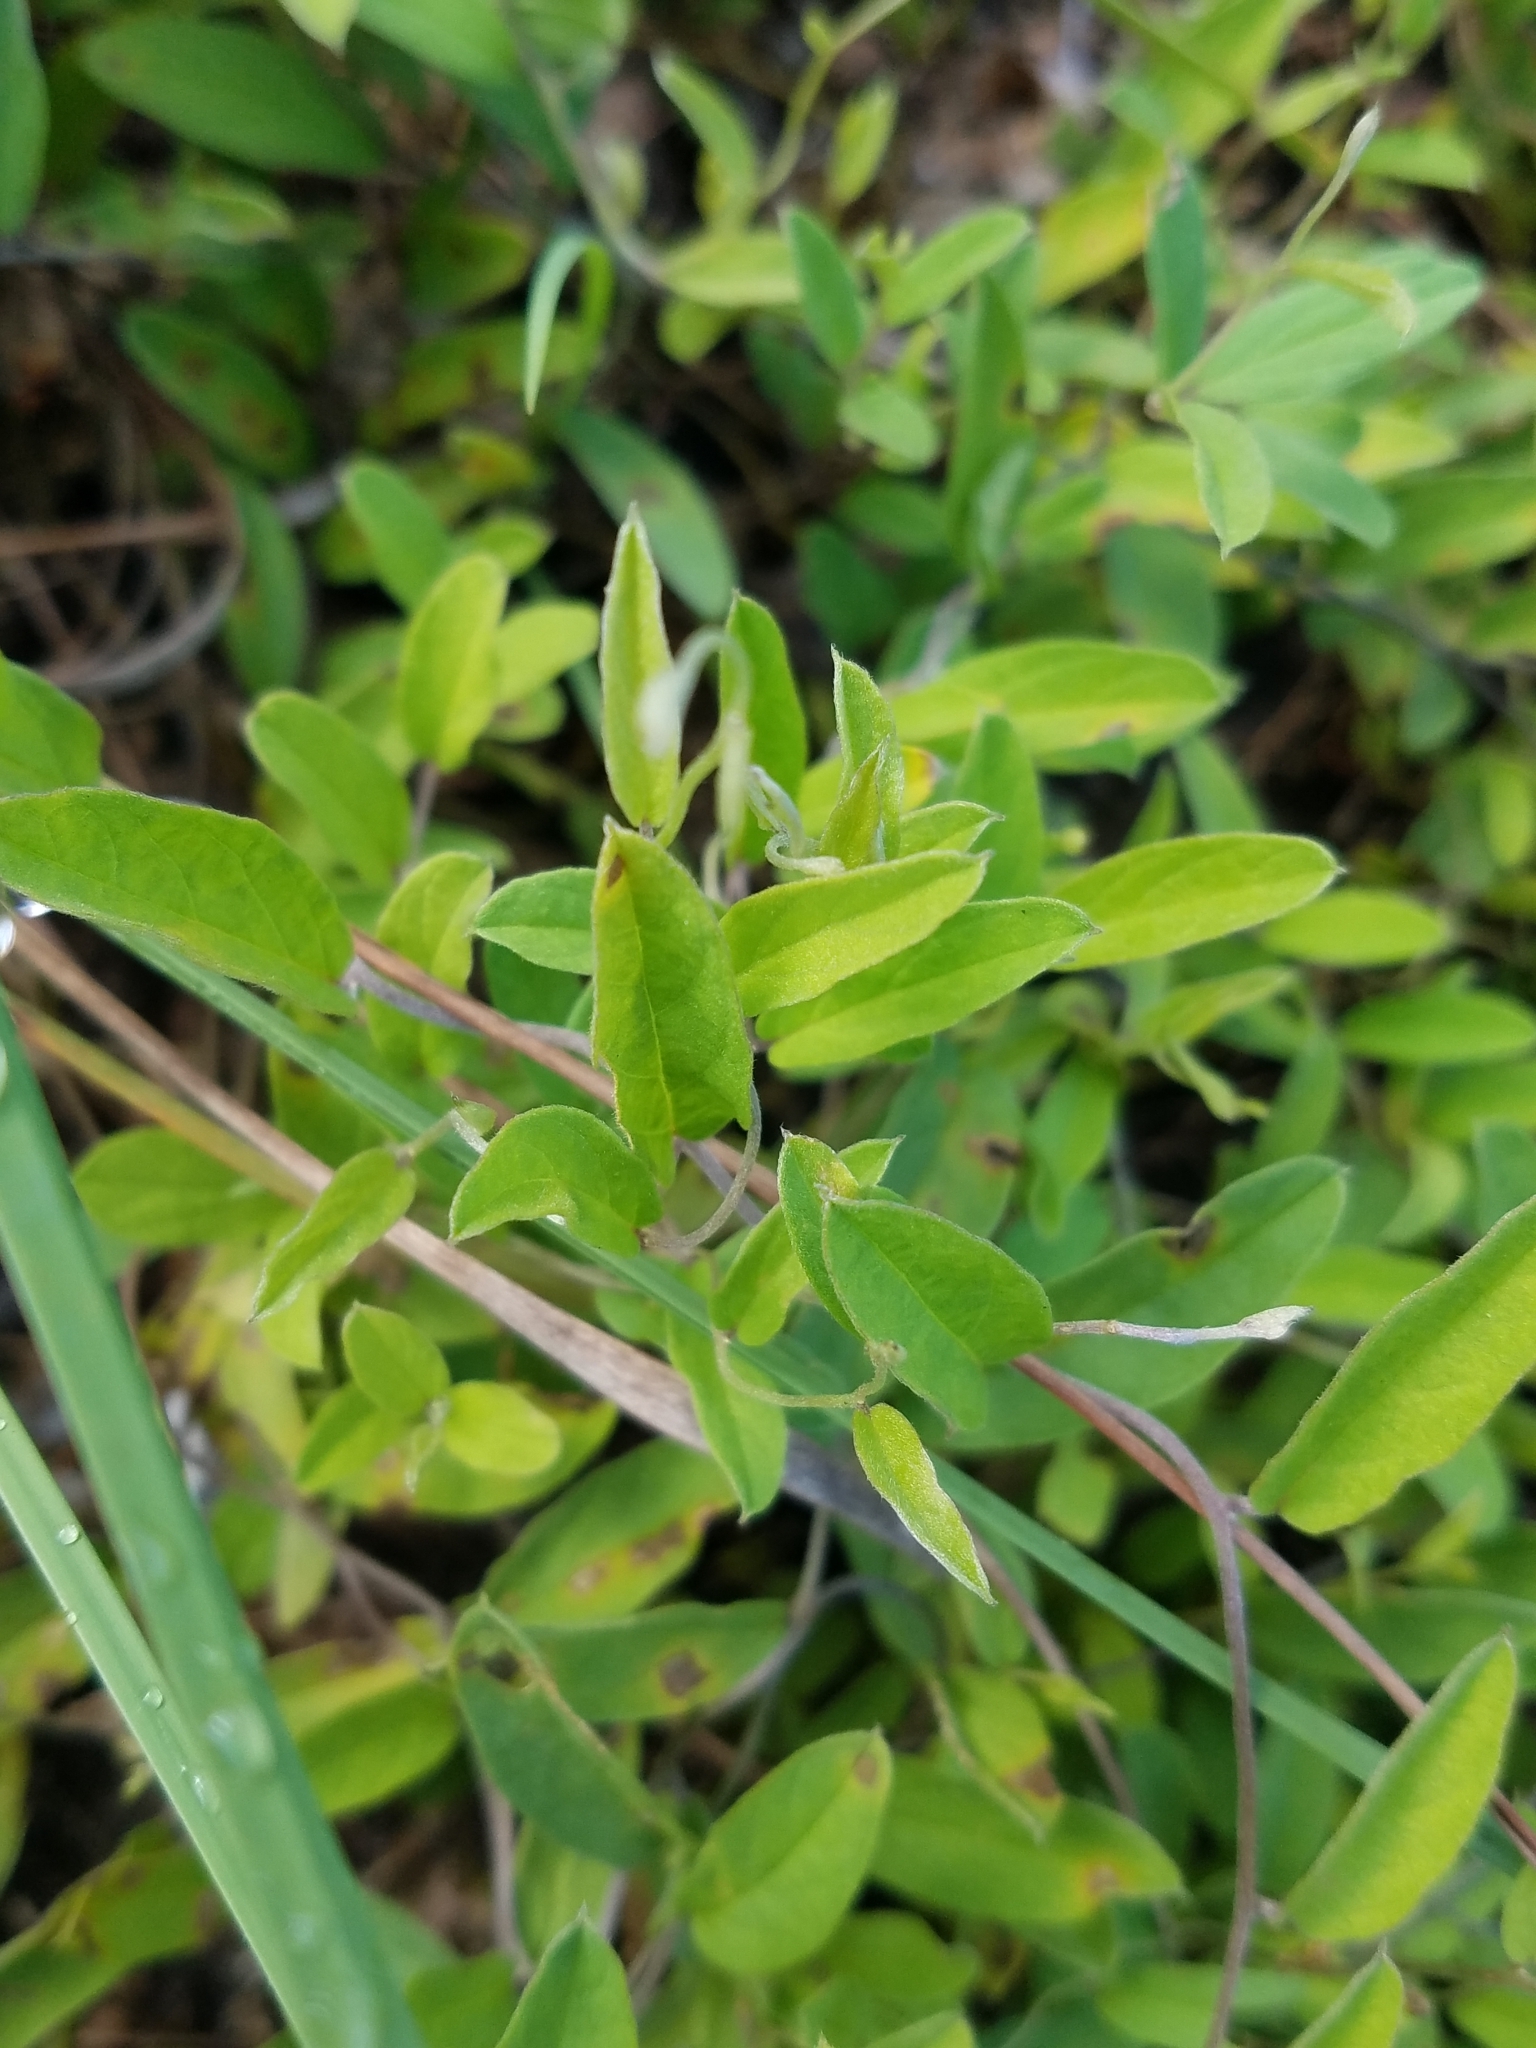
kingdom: Plantae
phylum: Tracheophyta
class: Magnoliopsida
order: Solanales
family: Convolvulaceae
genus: Stylisma
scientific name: Stylisma villosa
